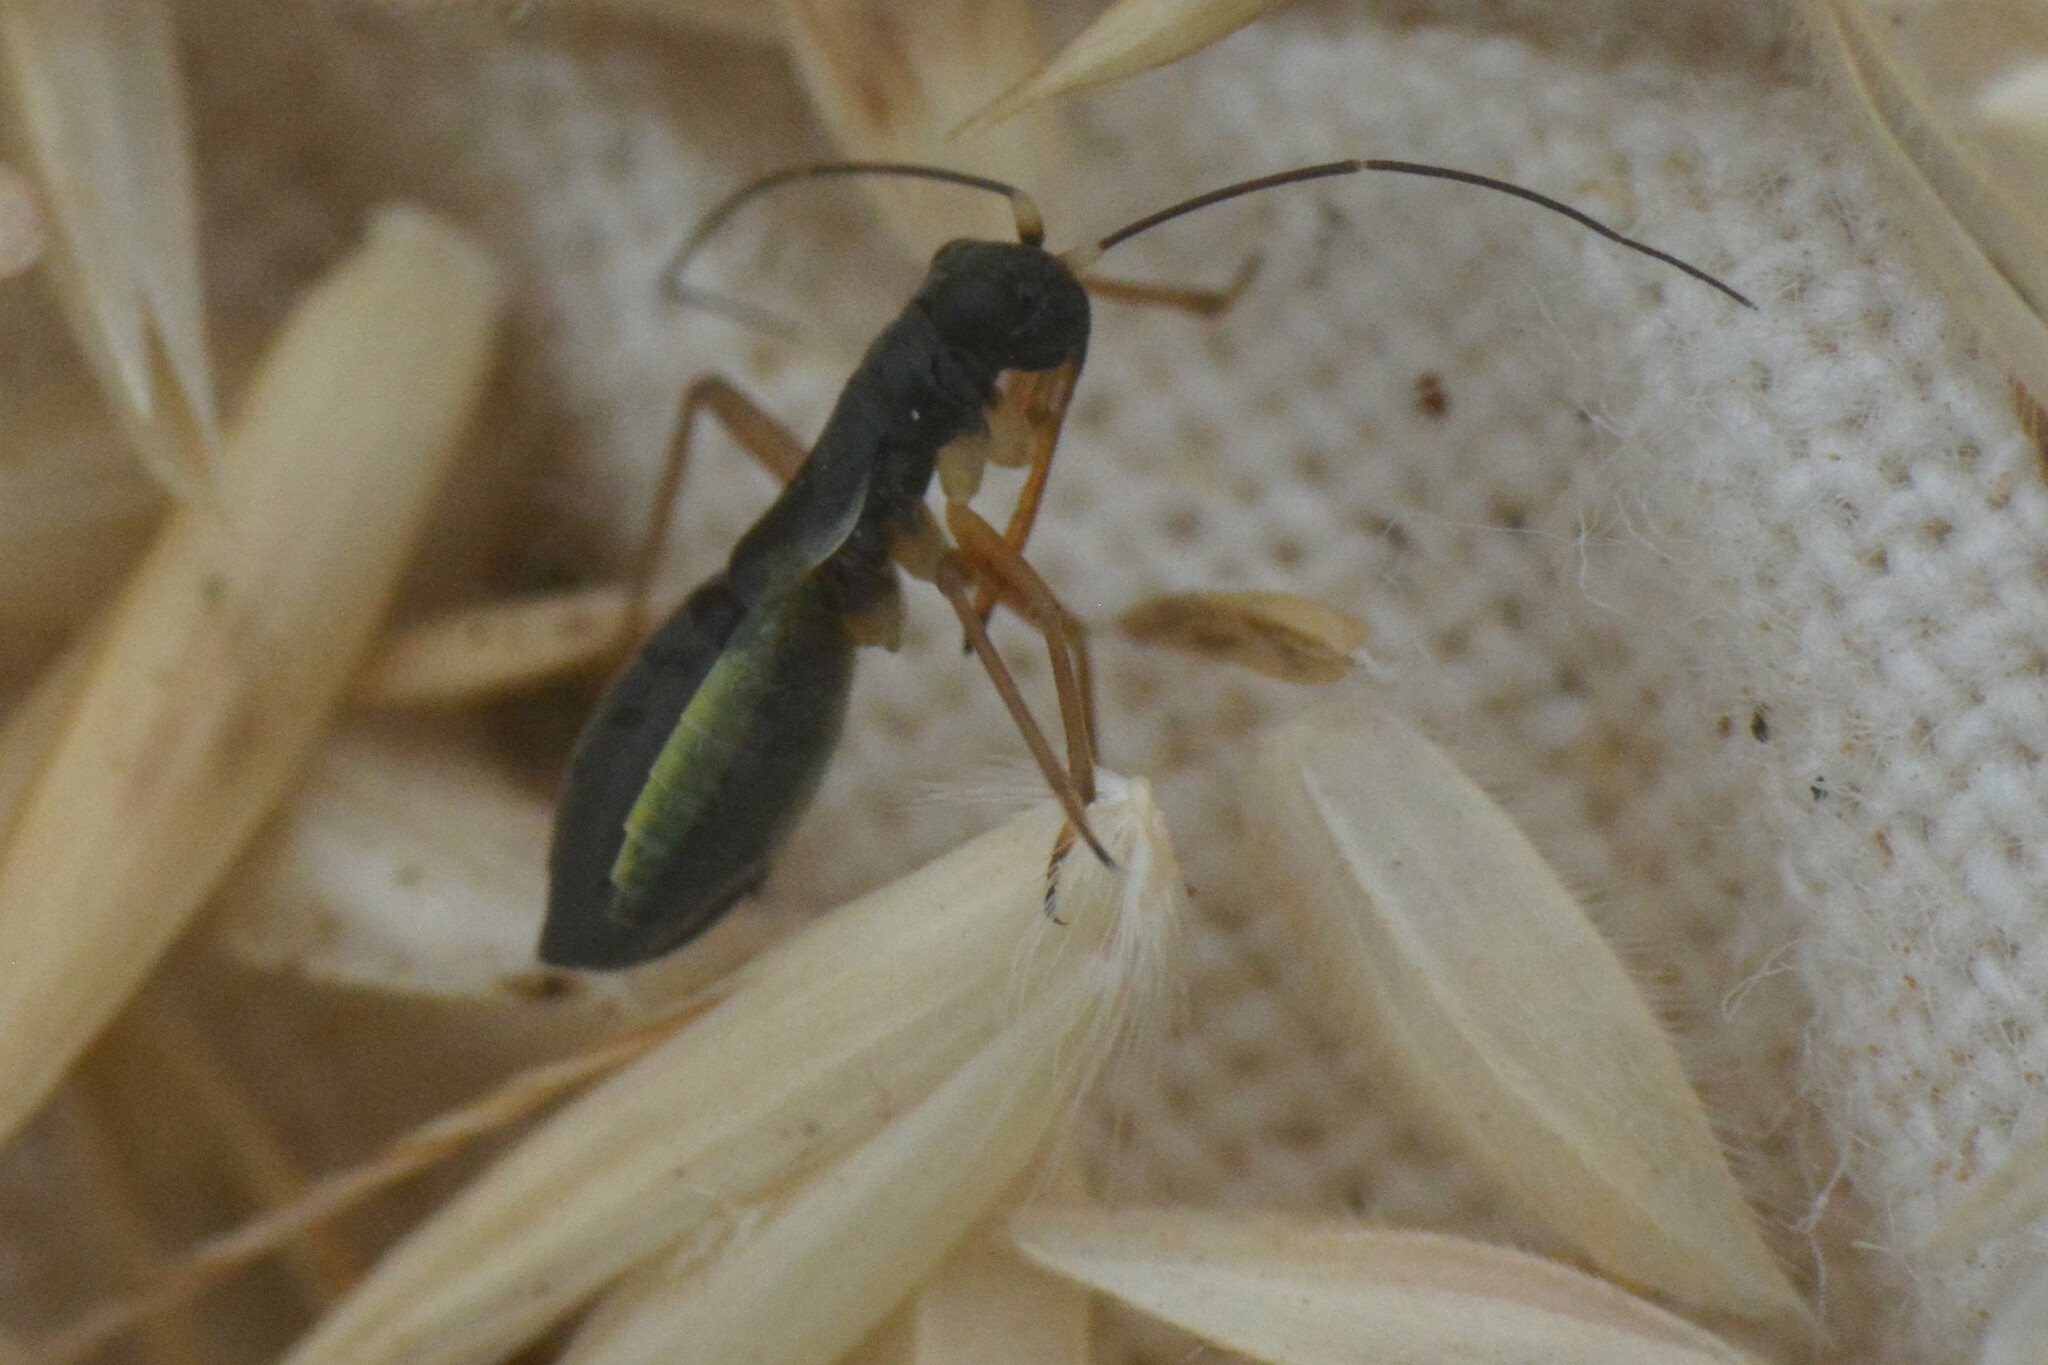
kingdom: Animalia
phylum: Arthropoda
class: Insecta
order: Hemiptera
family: Miridae
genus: Pithanus
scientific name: Pithanus maerkelii
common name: Plant bug
